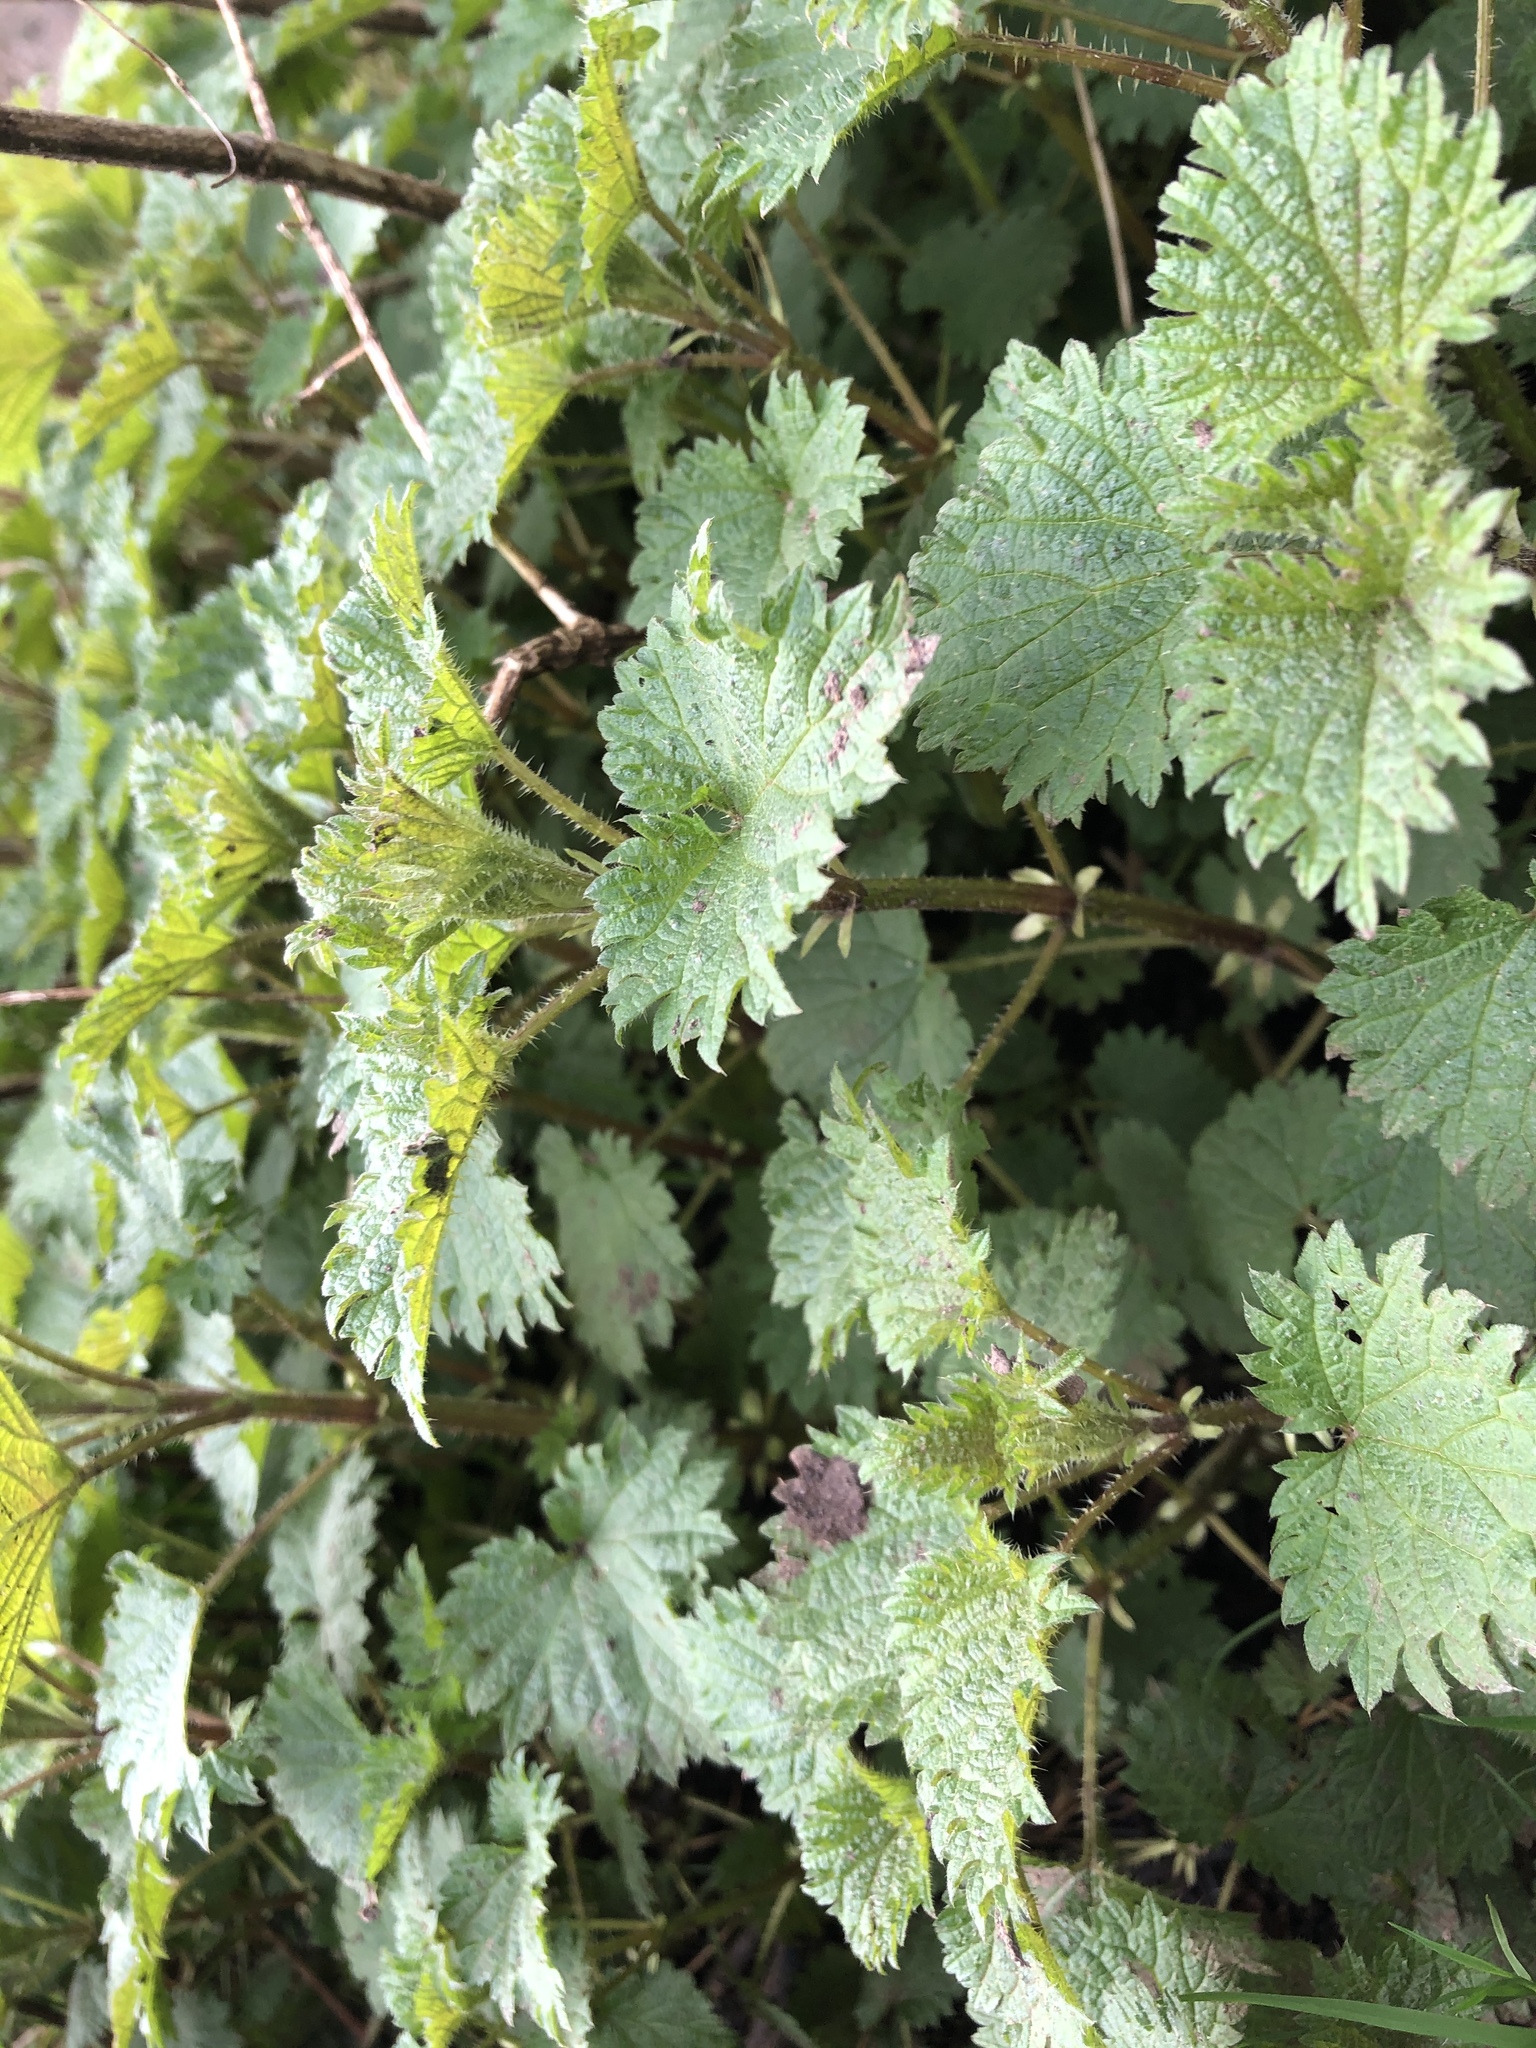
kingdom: Plantae
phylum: Tracheophyta
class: Magnoliopsida
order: Rosales
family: Urticaceae
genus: Urtica
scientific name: Urtica dioica
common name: Common nettle
